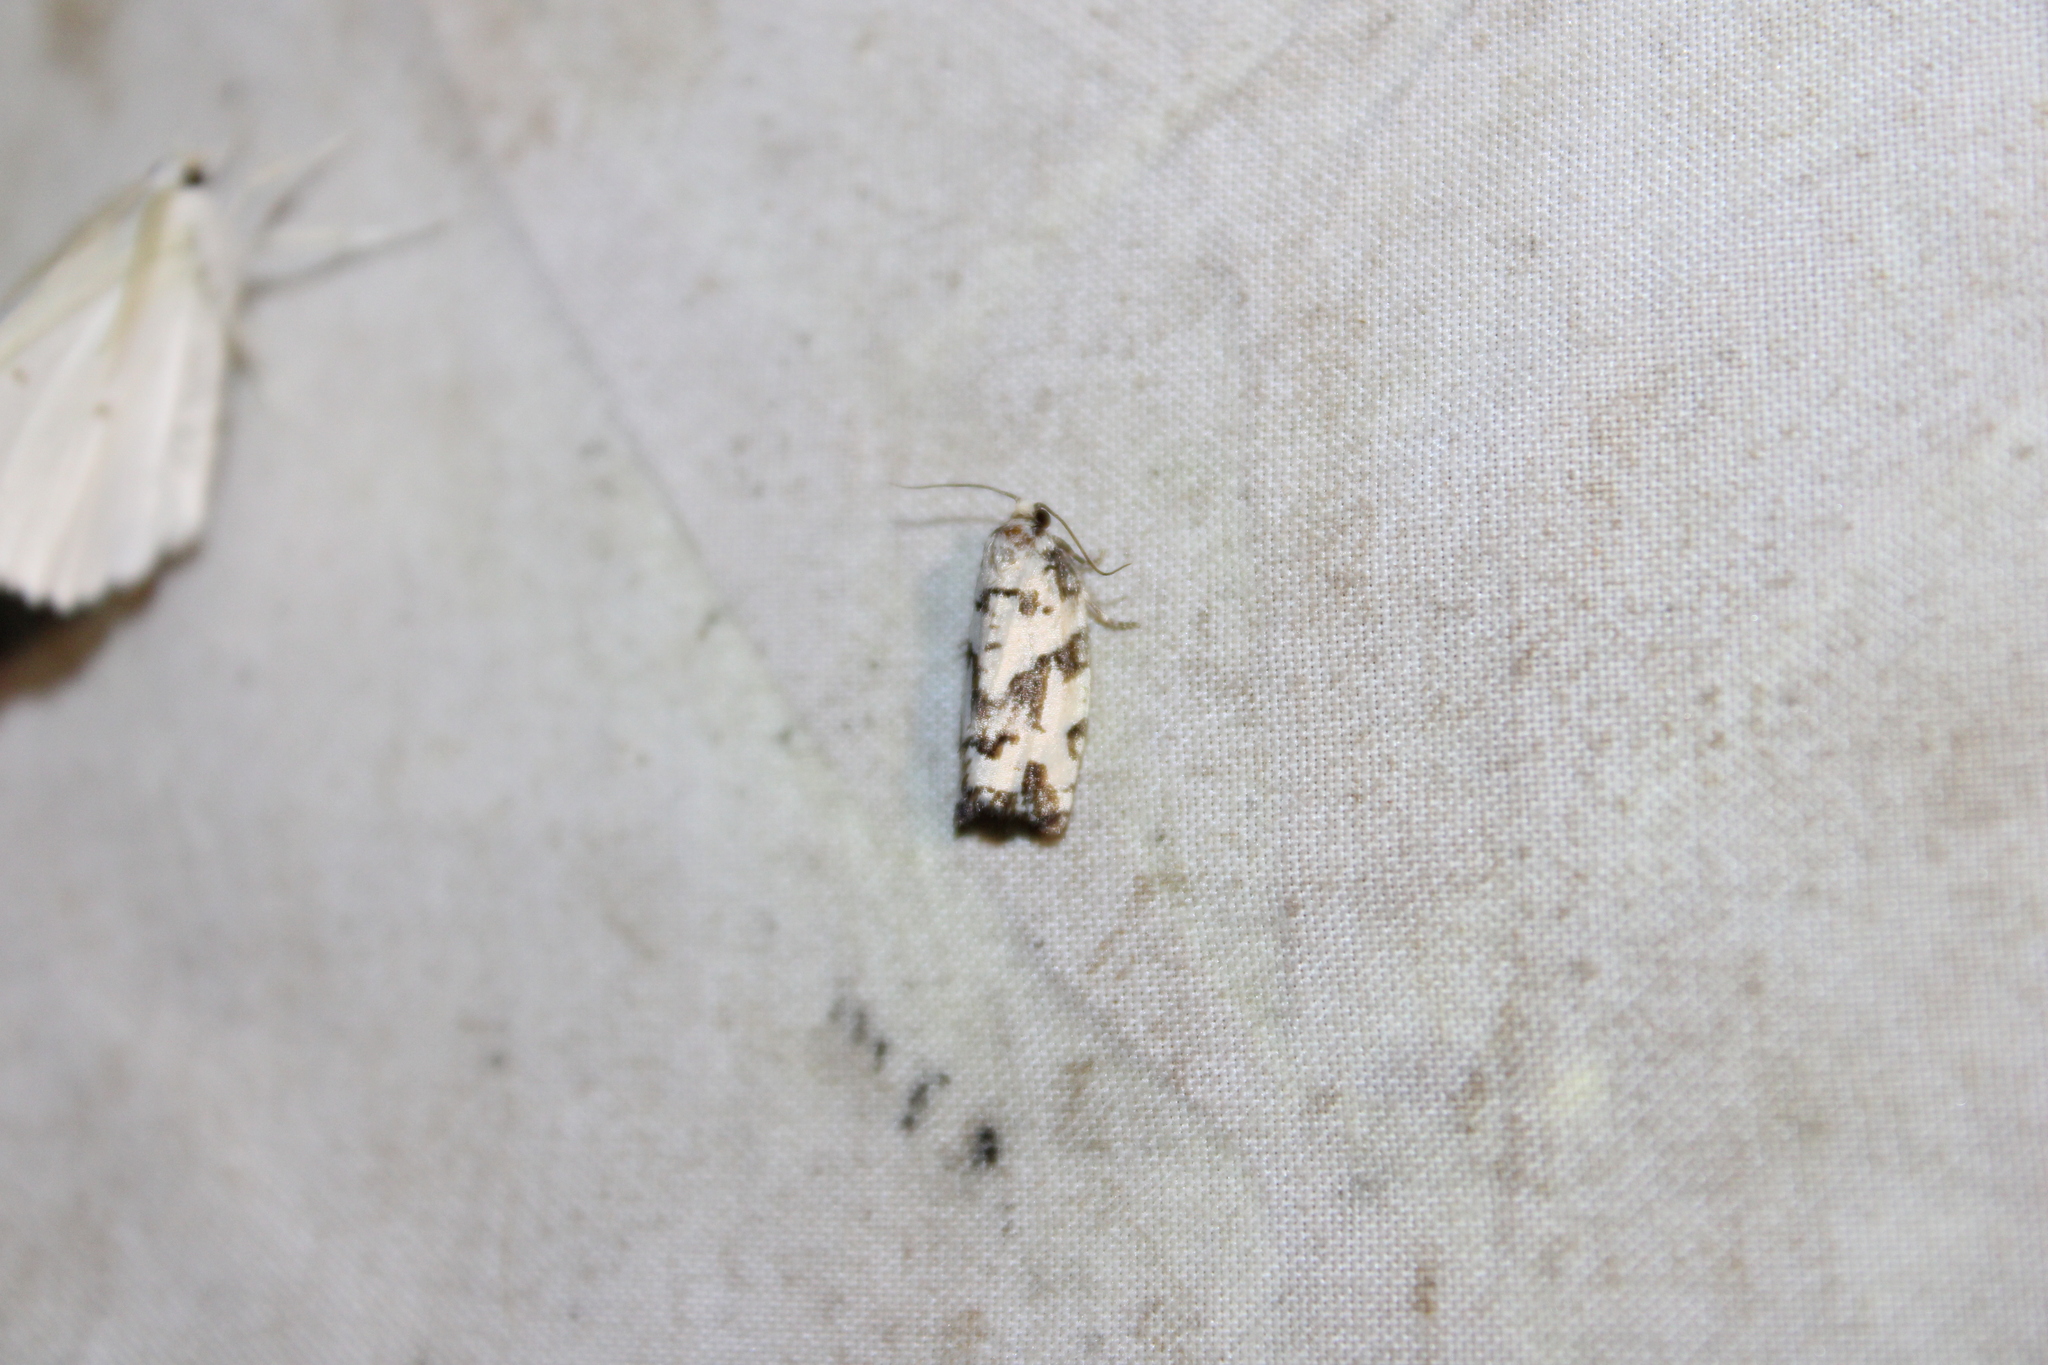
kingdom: Animalia
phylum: Arthropoda
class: Insecta
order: Lepidoptera
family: Tortricidae
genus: Archips
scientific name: Archips dissitana
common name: Boldly-marked archips moth
